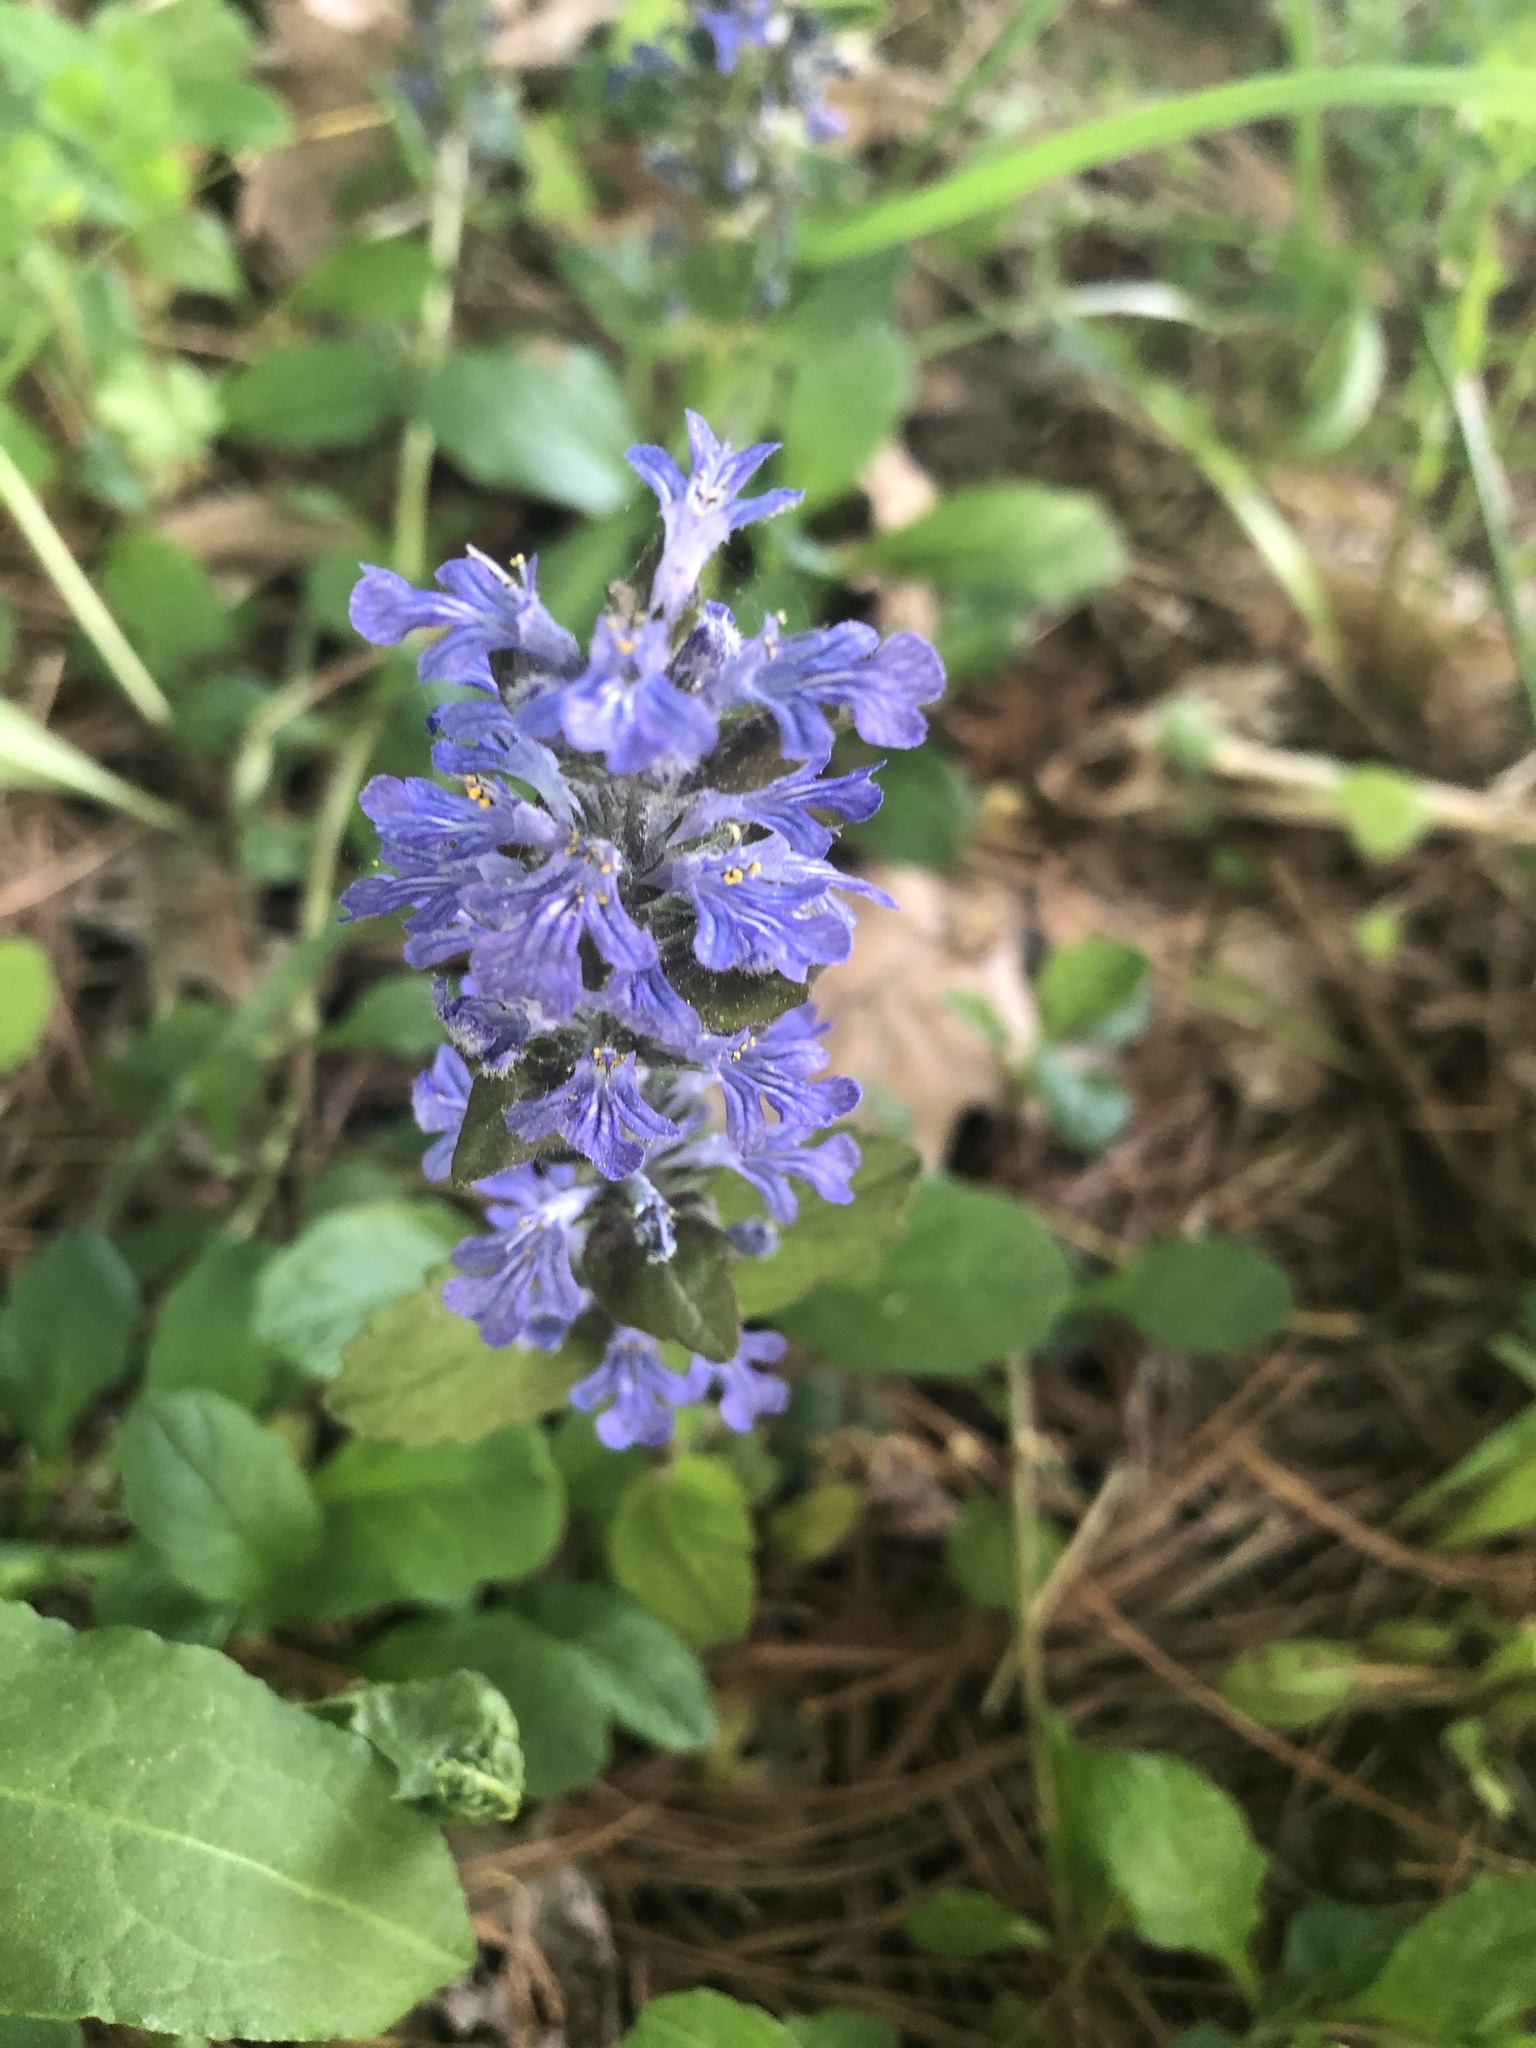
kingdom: Plantae
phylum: Tracheophyta
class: Magnoliopsida
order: Lamiales
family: Lamiaceae
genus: Ajuga
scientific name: Ajuga reptans
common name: Bugle
